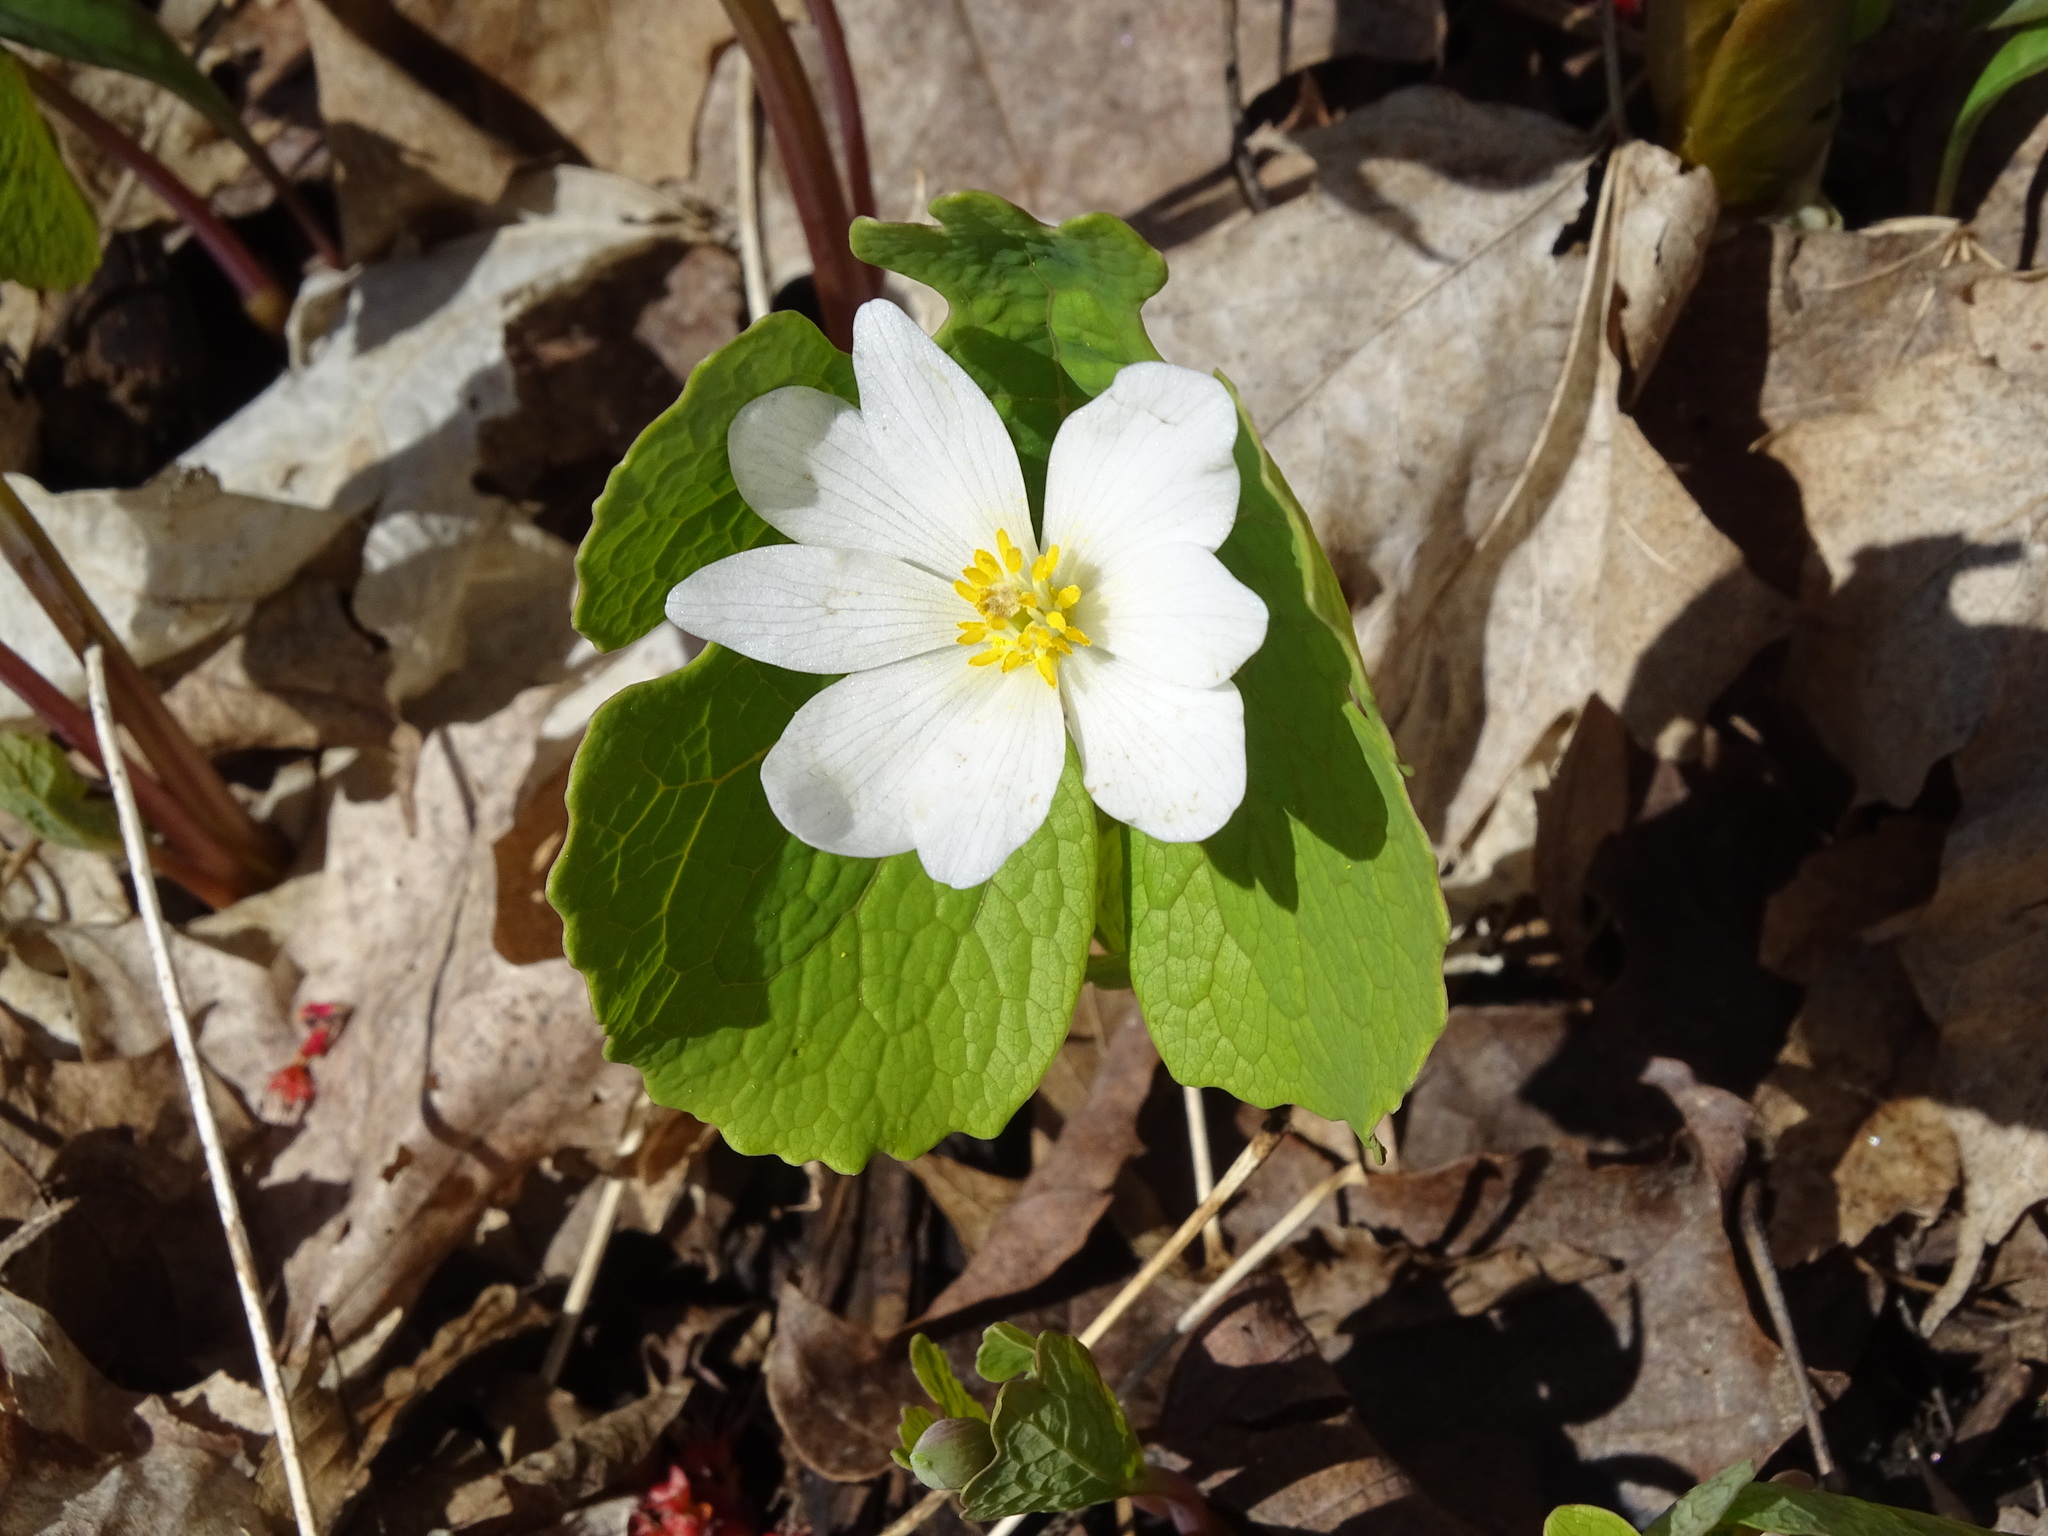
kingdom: Plantae
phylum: Tracheophyta
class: Magnoliopsida
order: Ranunculales
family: Papaveraceae
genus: Sanguinaria
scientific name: Sanguinaria canadensis
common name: Bloodroot
